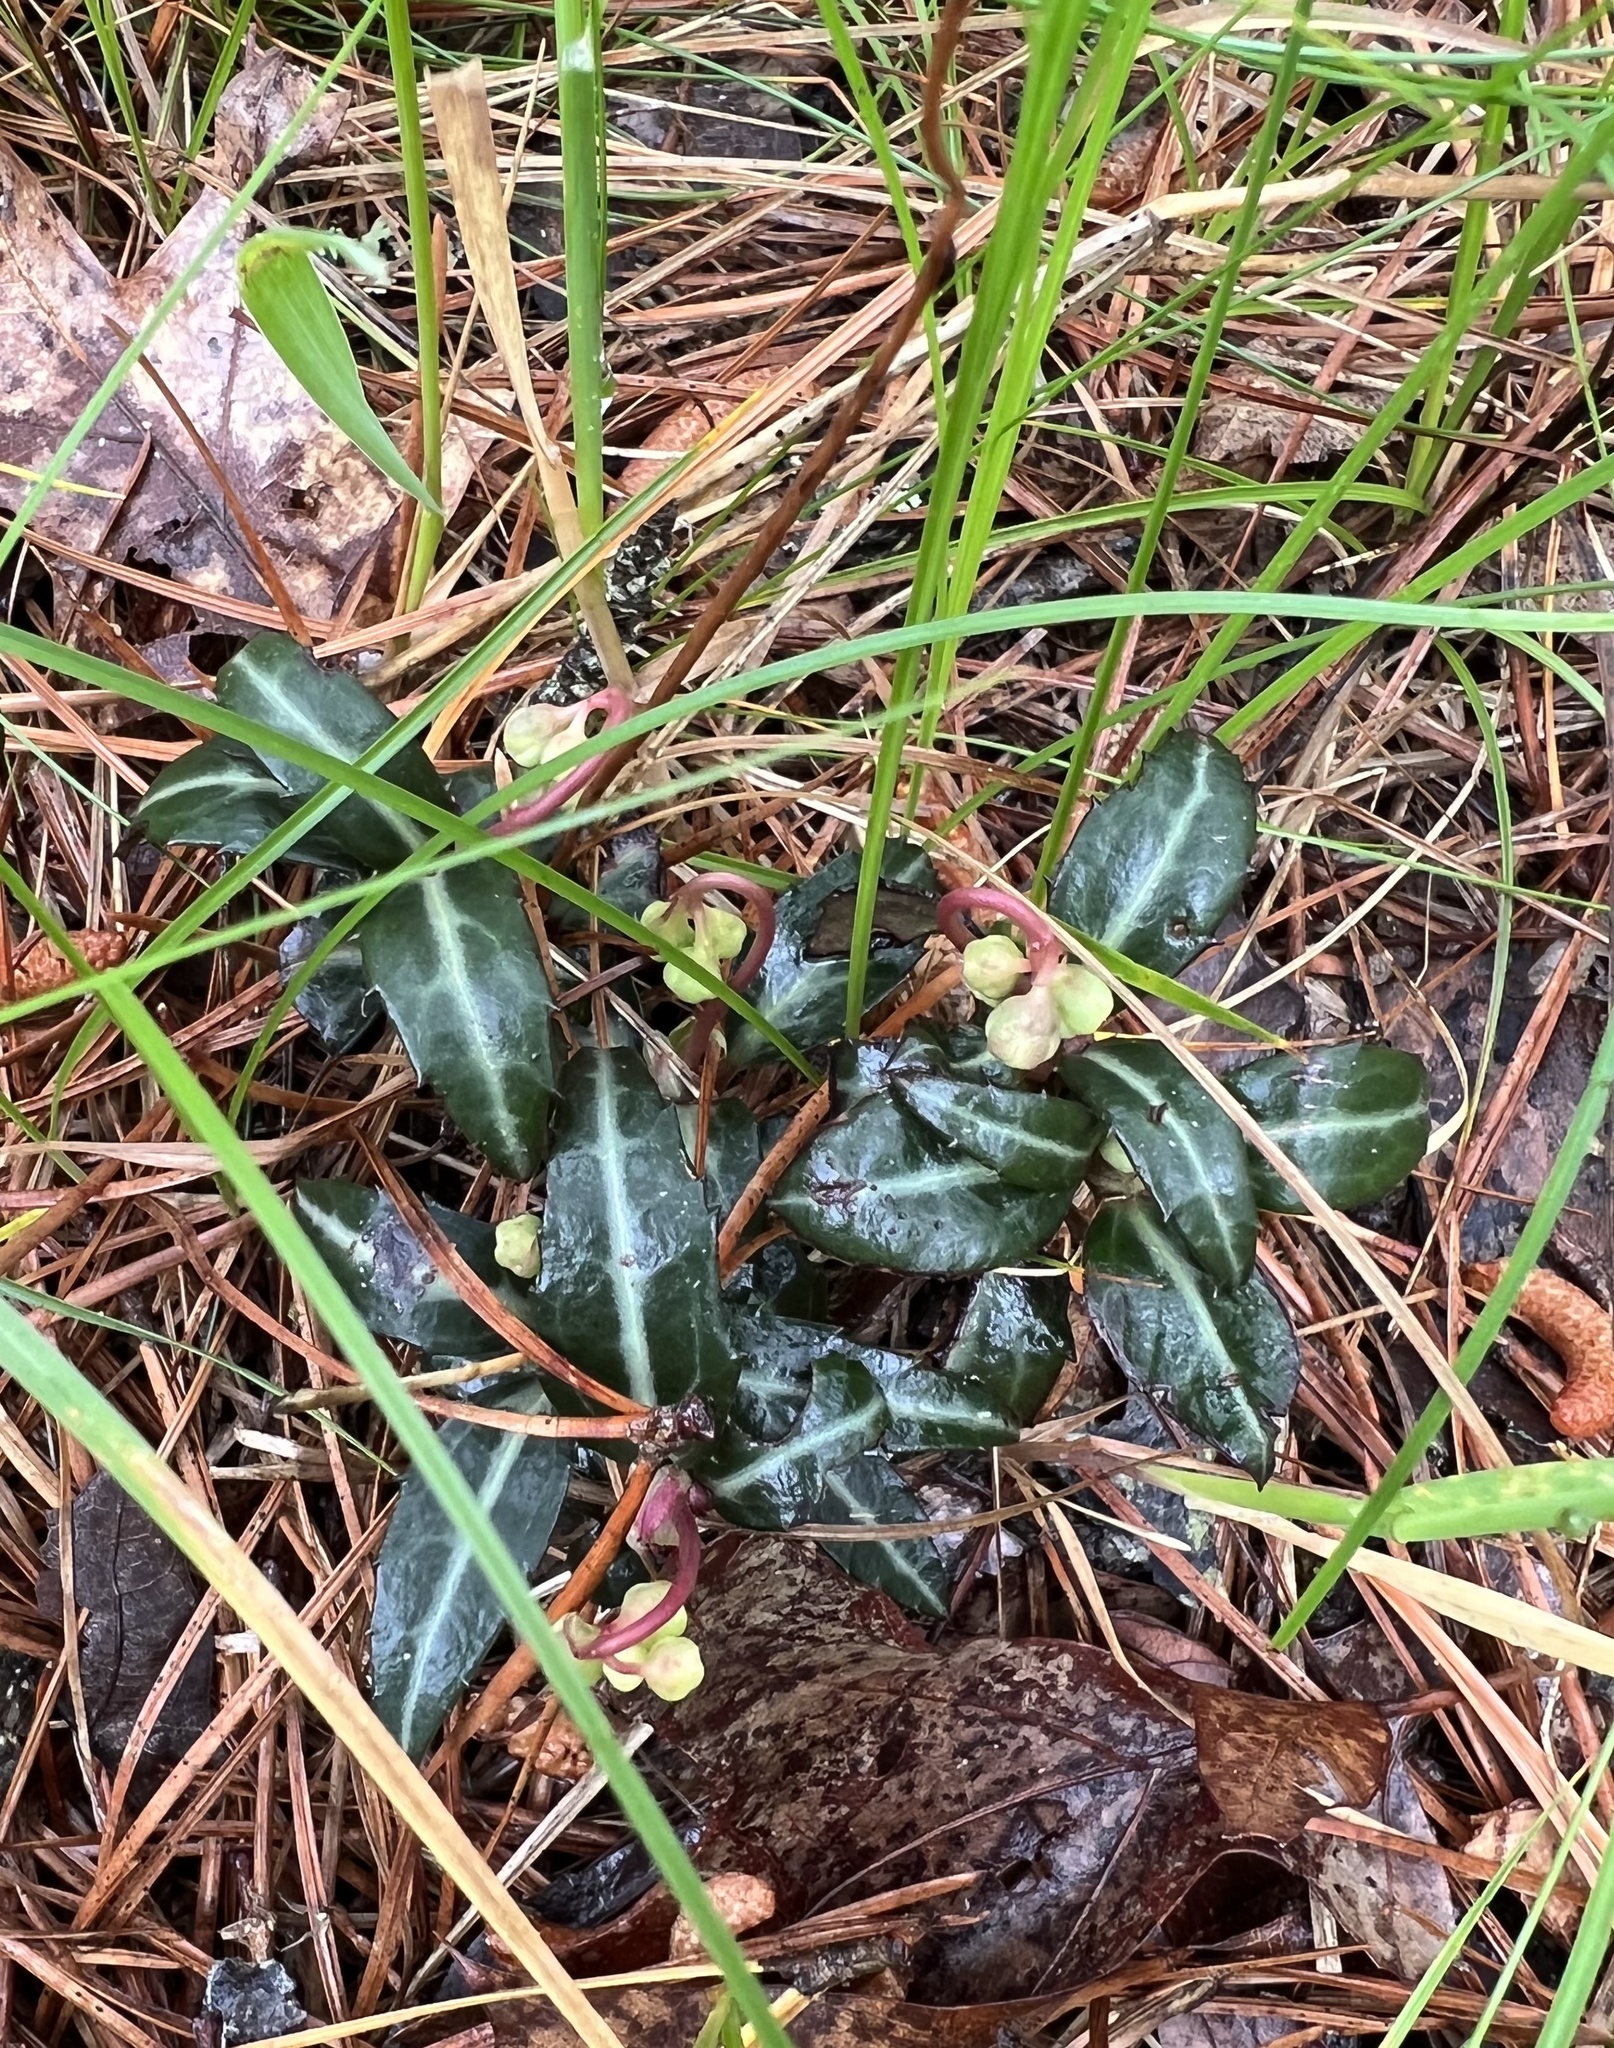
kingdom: Plantae
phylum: Tracheophyta
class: Magnoliopsida
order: Ericales
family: Ericaceae
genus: Chimaphila
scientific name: Chimaphila maculata
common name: Spotted pipsissewa
